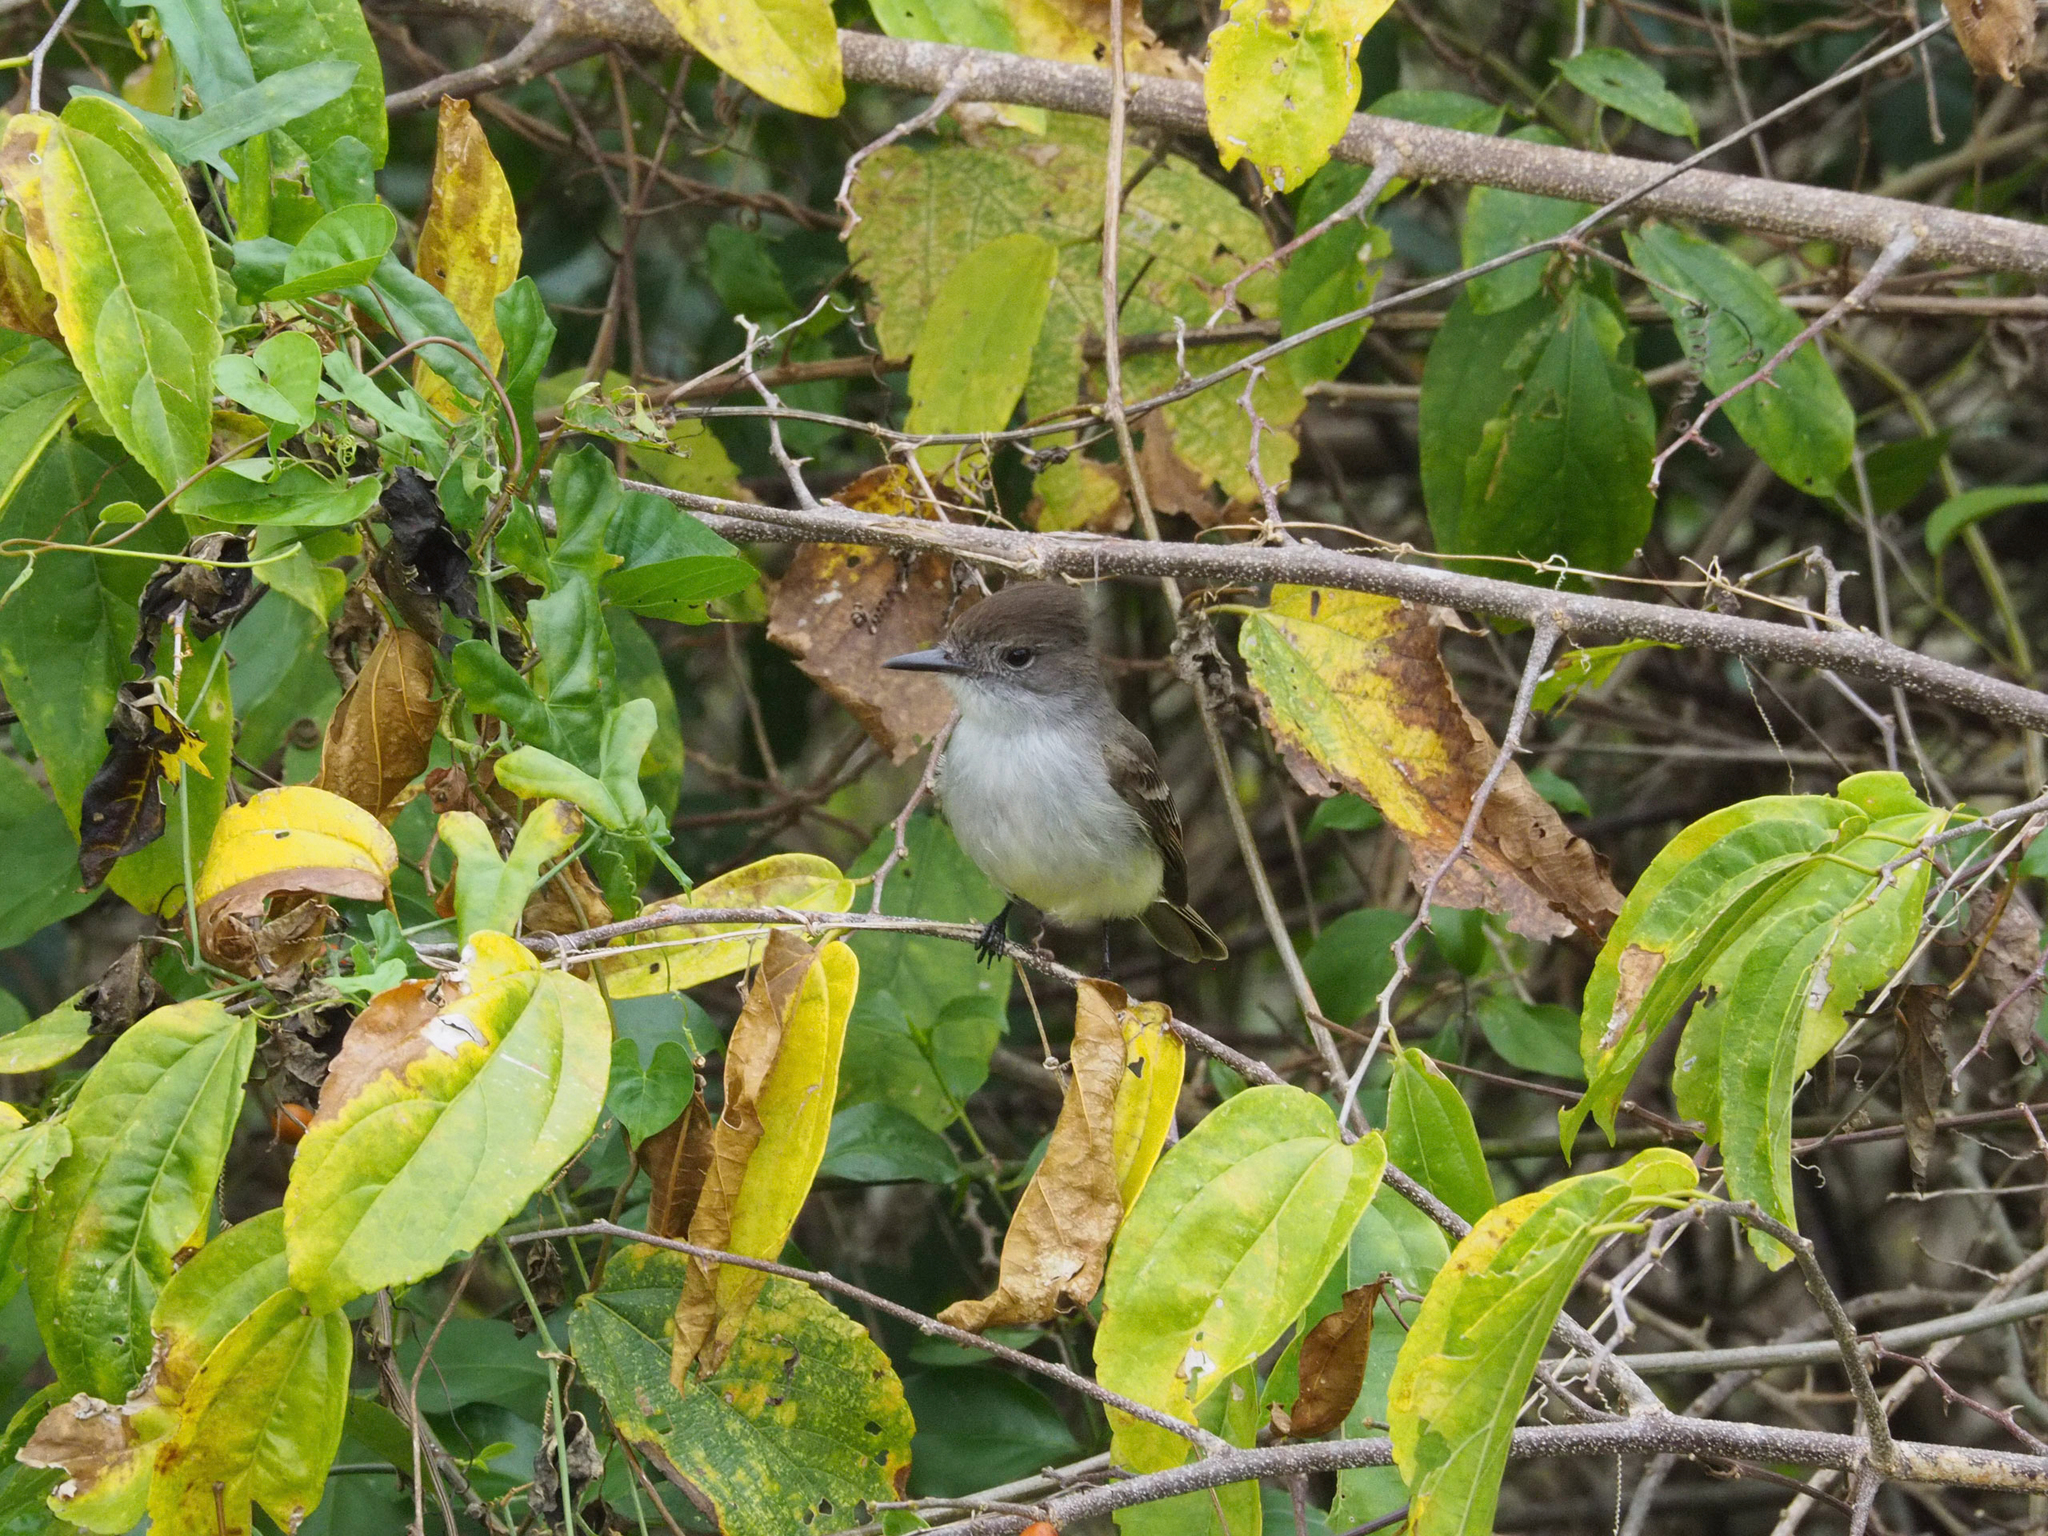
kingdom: Animalia
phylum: Chordata
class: Aves
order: Passeriformes
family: Tyrannidae
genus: Myiarchus
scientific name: Myiarchus sagrae
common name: La sagra's flycatcher
